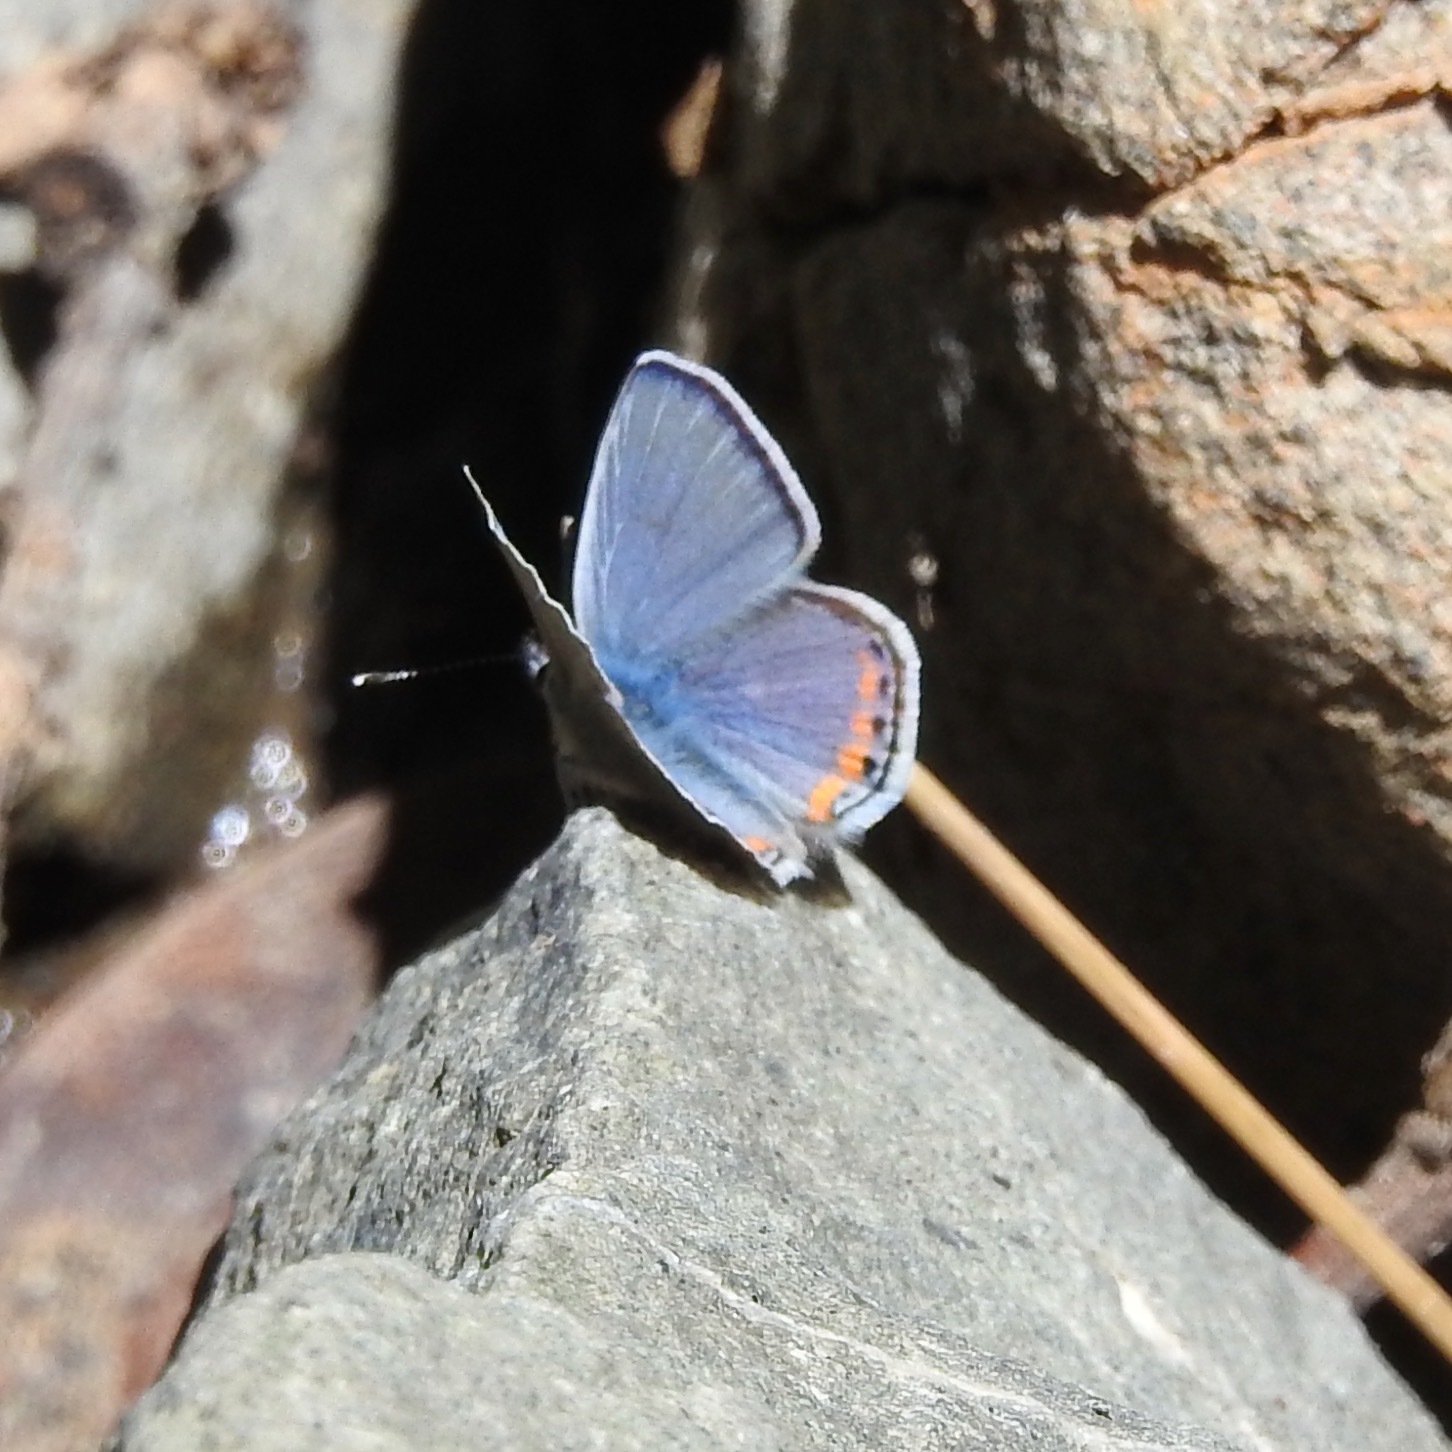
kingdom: Animalia
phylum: Arthropoda
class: Insecta
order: Lepidoptera
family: Lycaenidae
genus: Icaricia
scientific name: Icaricia acmon
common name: Acmon blue
